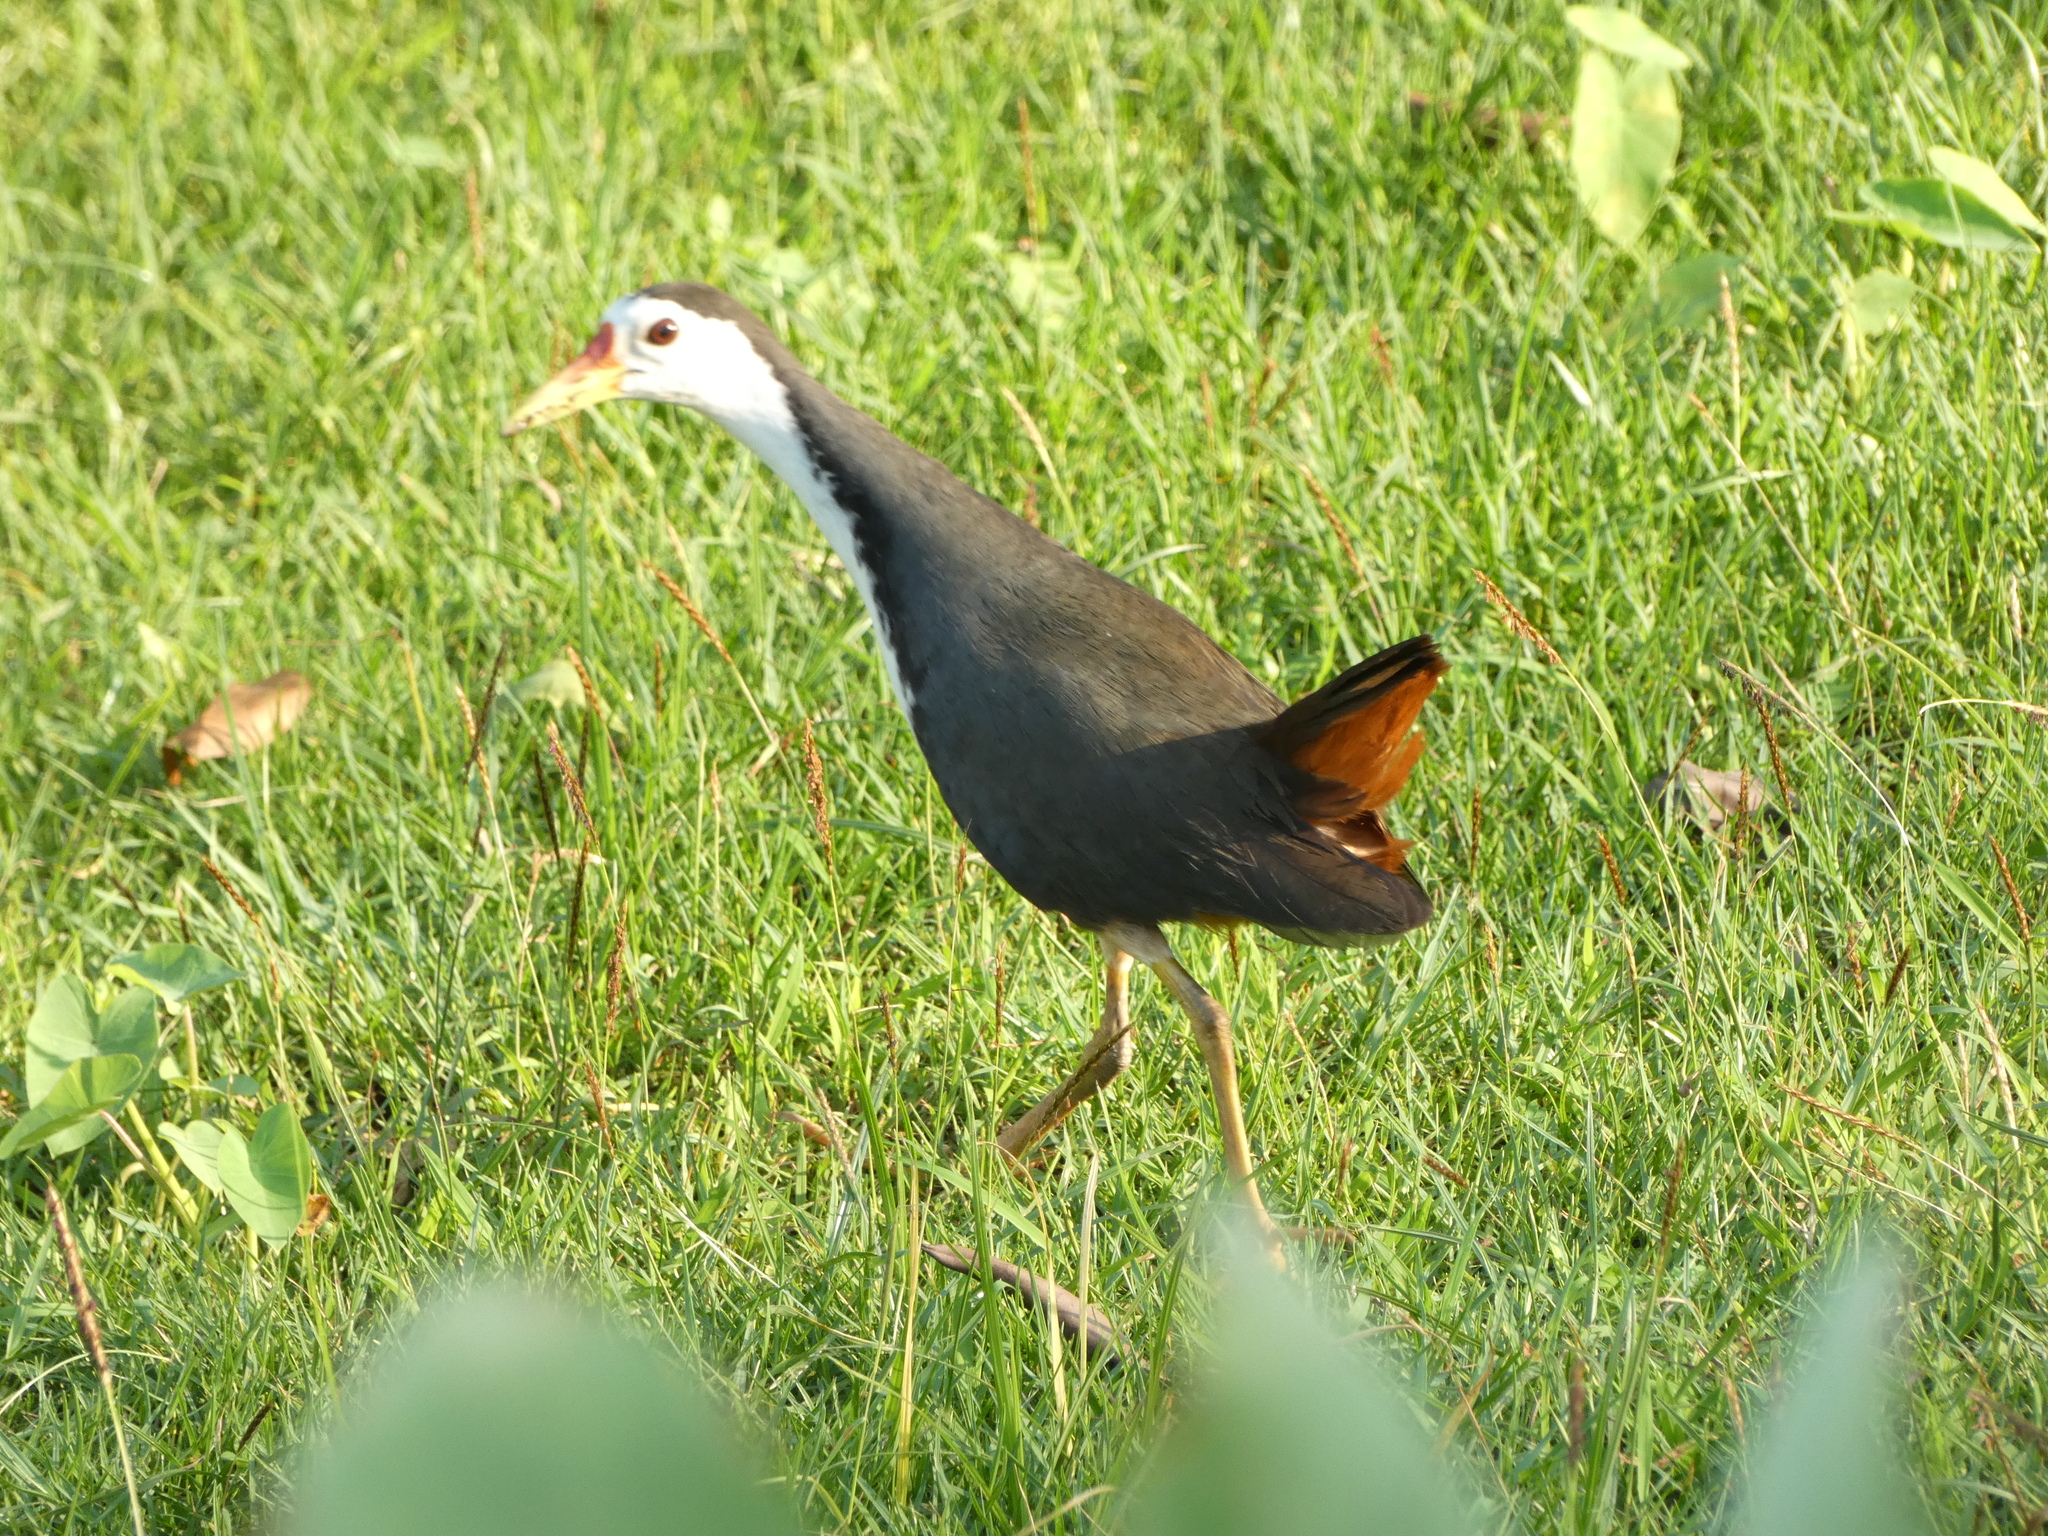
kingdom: Animalia
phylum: Chordata
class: Aves
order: Gruiformes
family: Rallidae
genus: Amaurornis
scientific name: Amaurornis phoenicurus
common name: White-breasted waterhen
